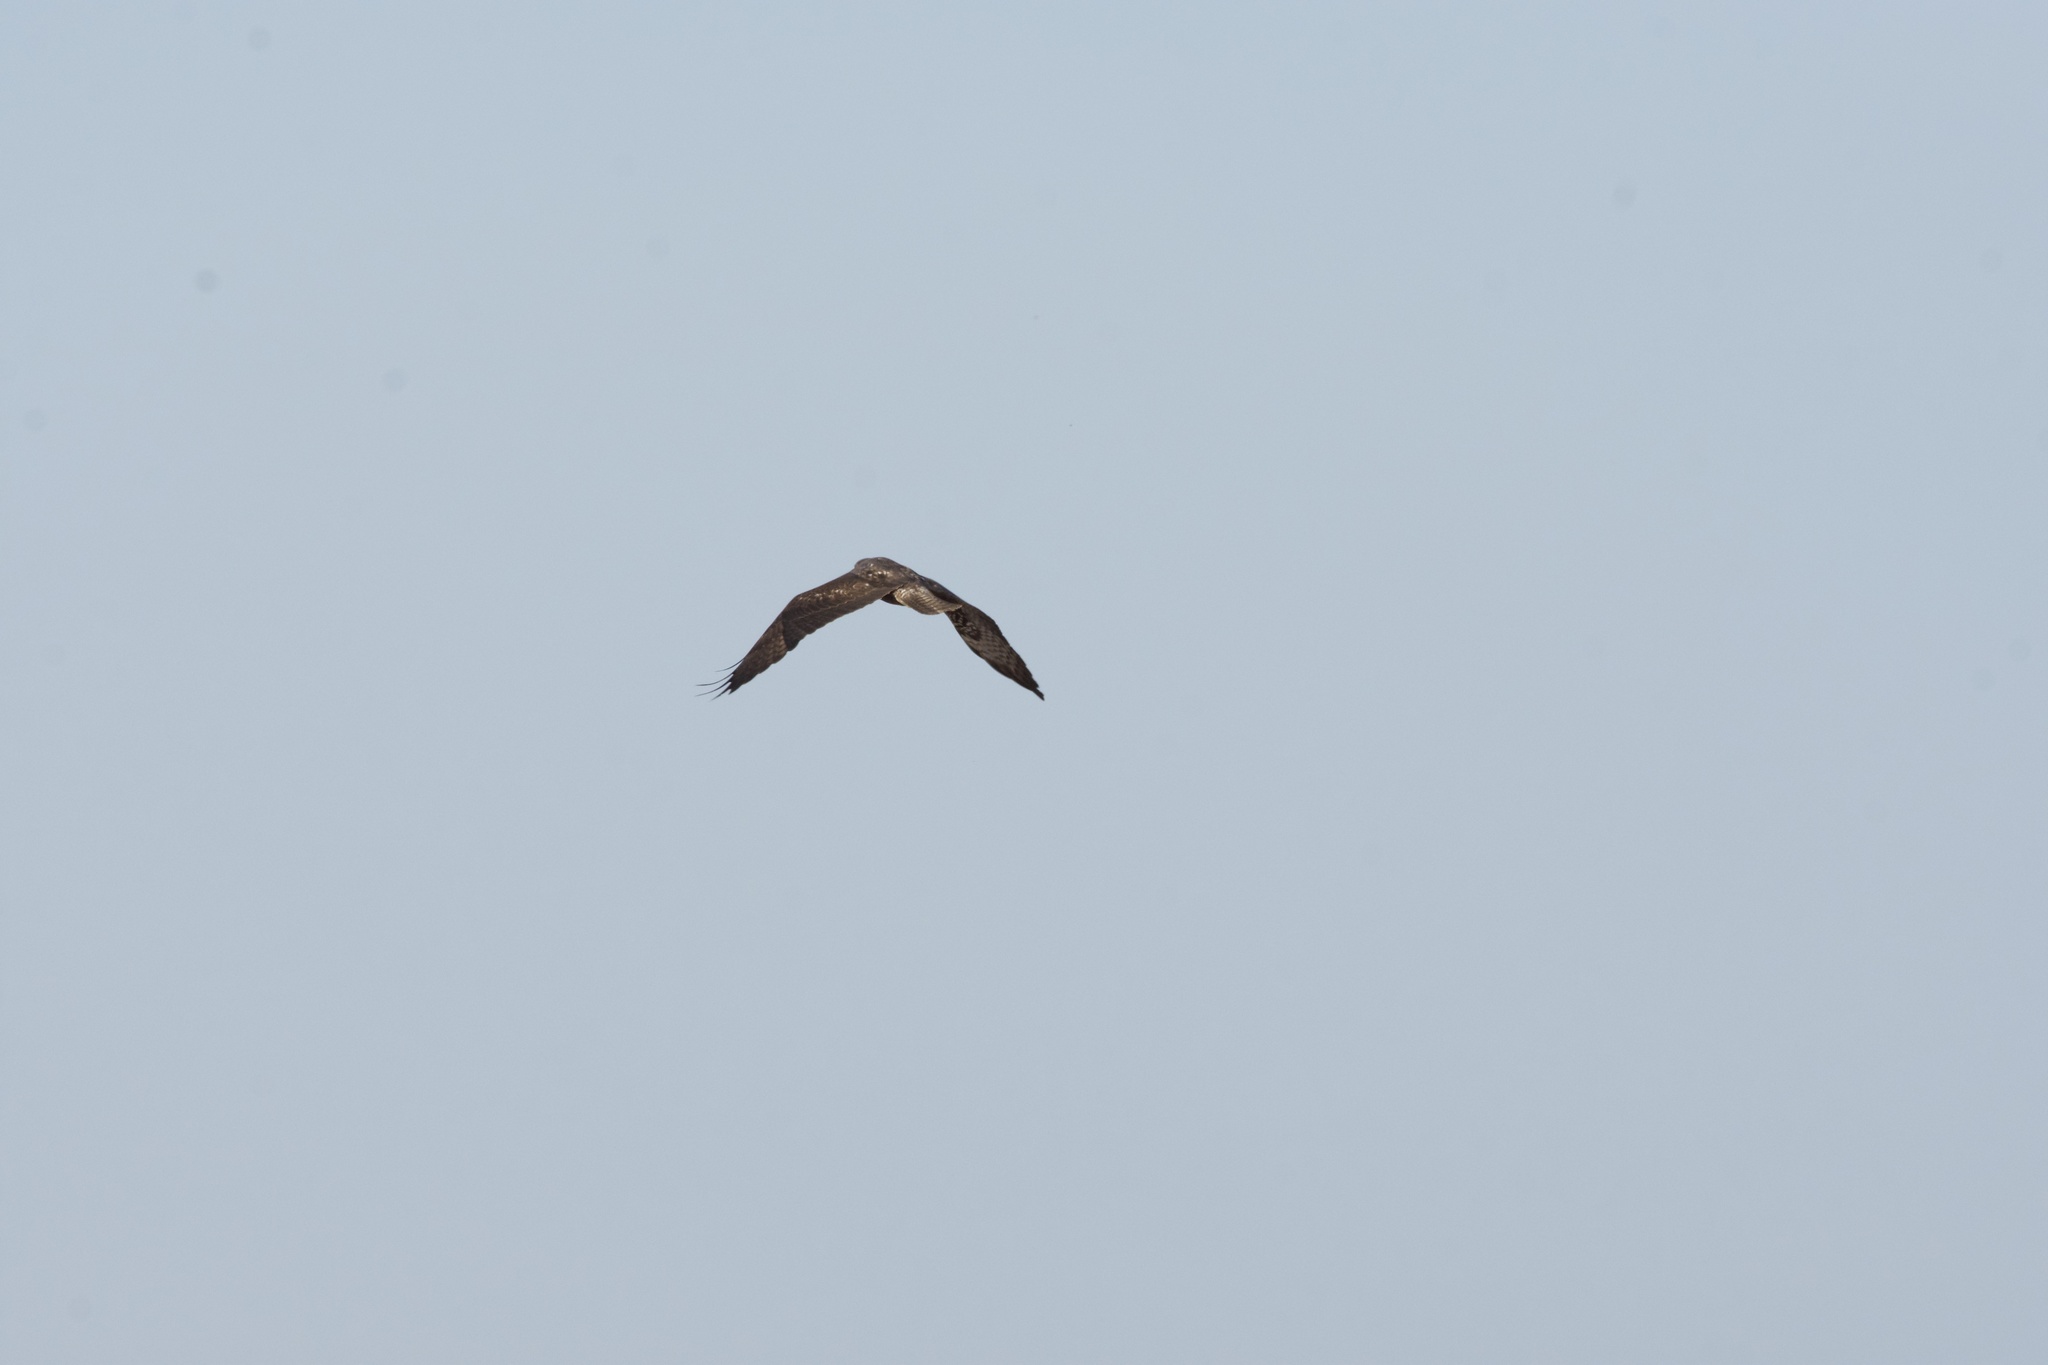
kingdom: Animalia
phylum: Chordata
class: Aves
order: Accipitriformes
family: Accipitridae
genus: Buteo
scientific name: Buteo swainsoni
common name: Swainson's hawk
